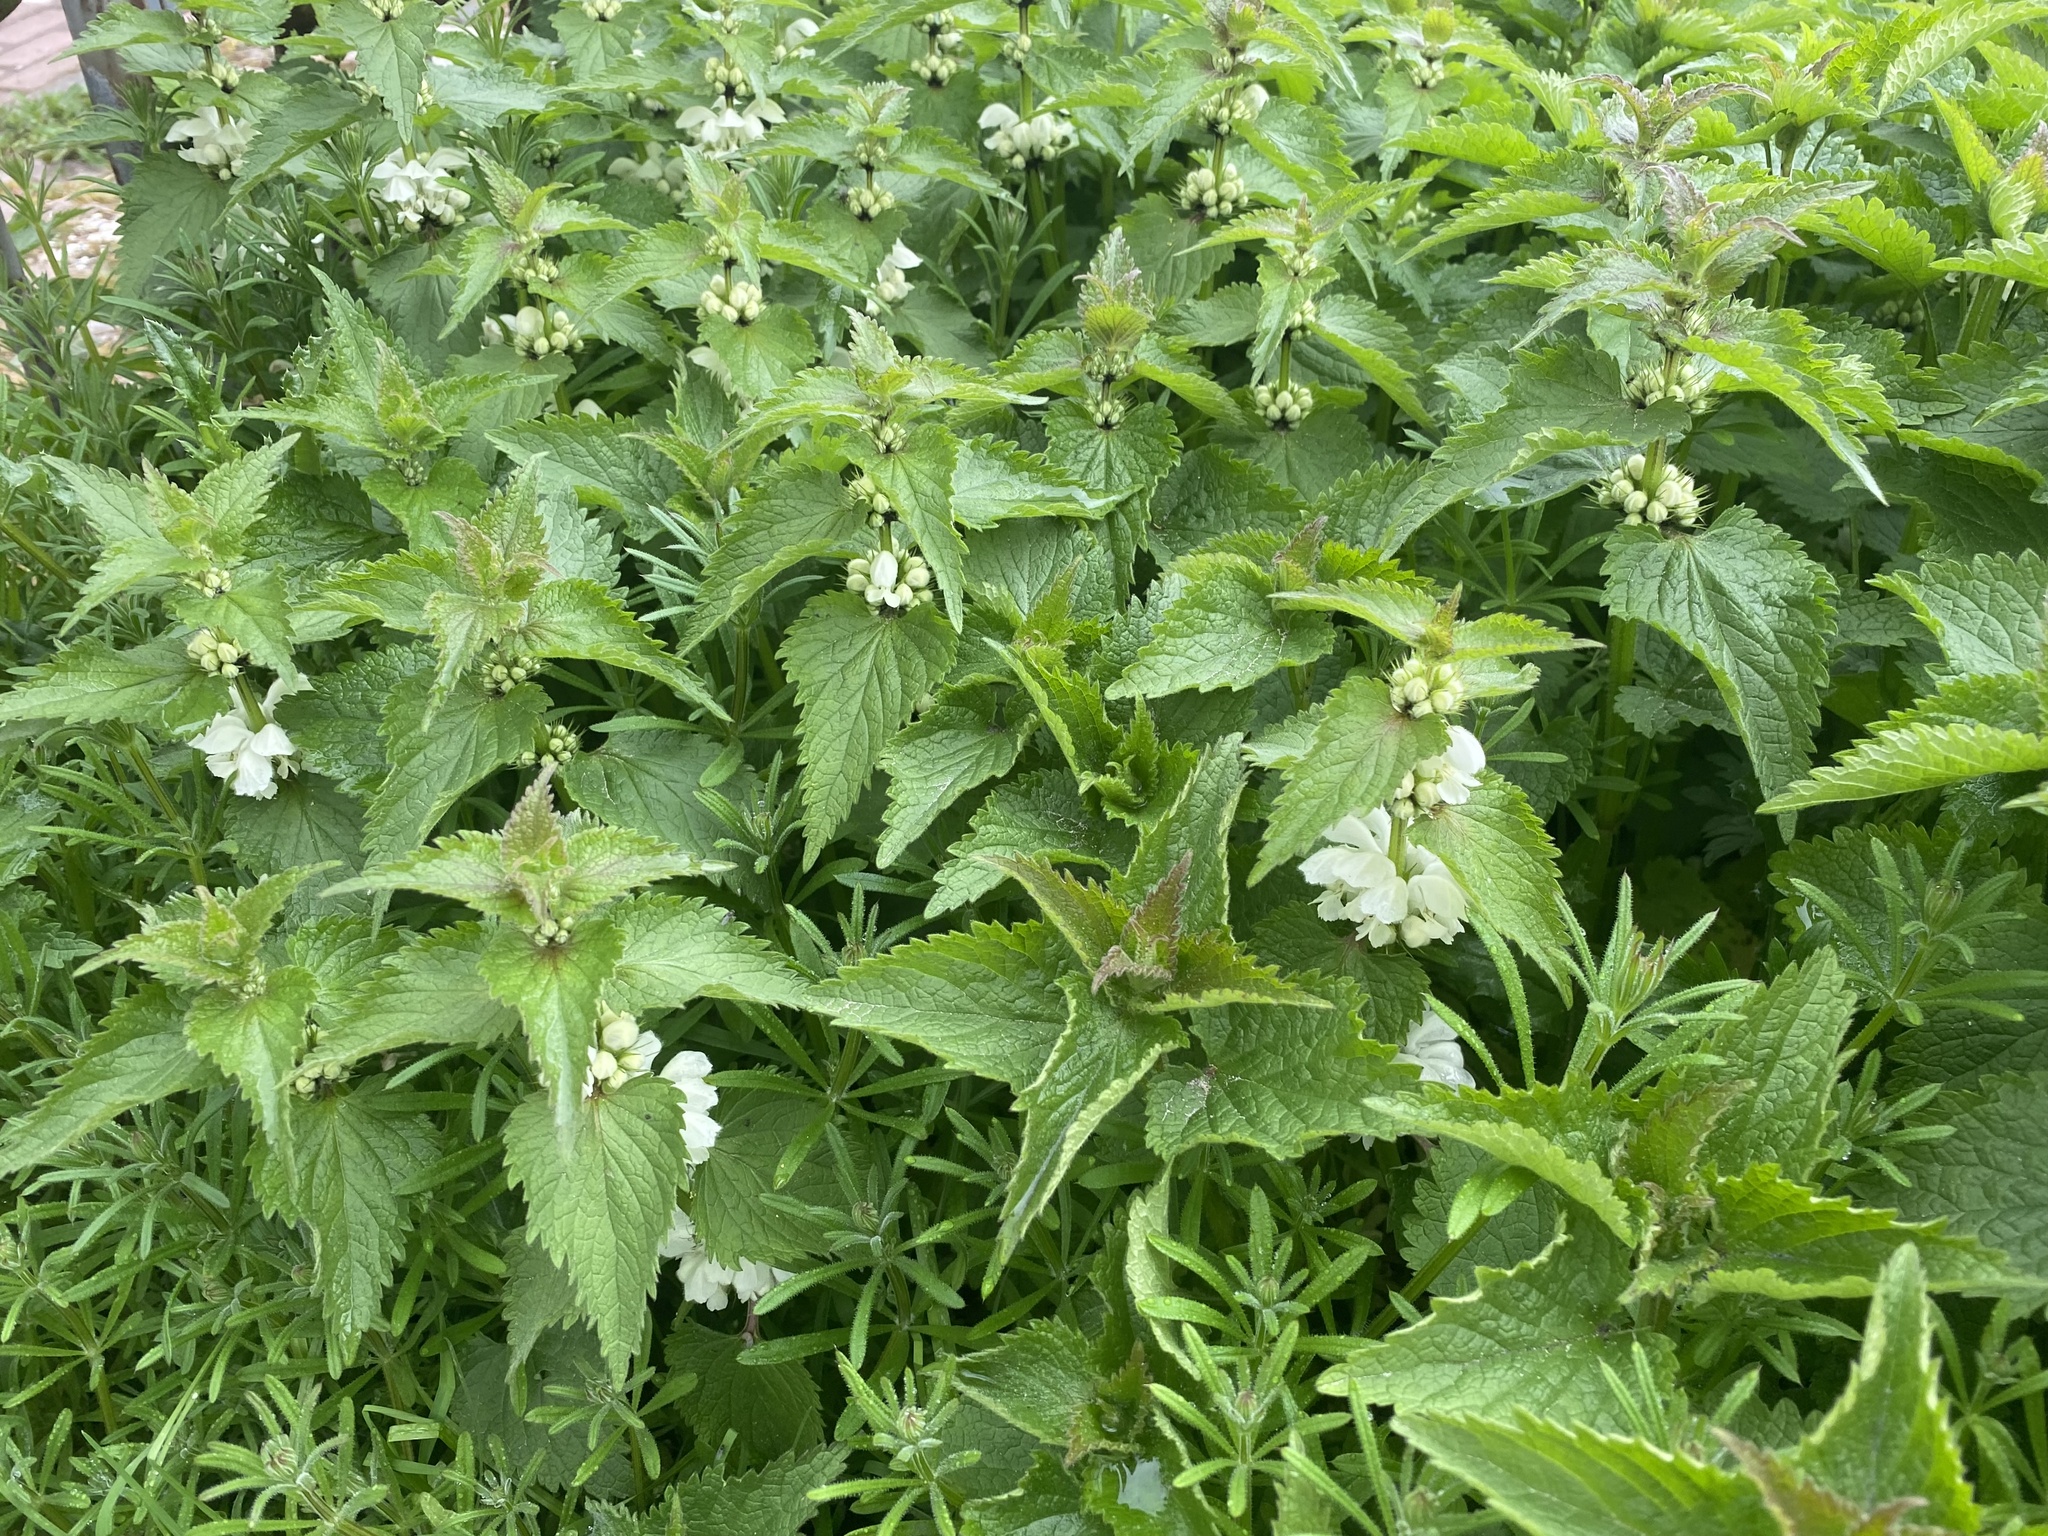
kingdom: Plantae
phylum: Tracheophyta
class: Magnoliopsida
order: Lamiales
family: Lamiaceae
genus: Lamium
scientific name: Lamium album
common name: White dead-nettle
